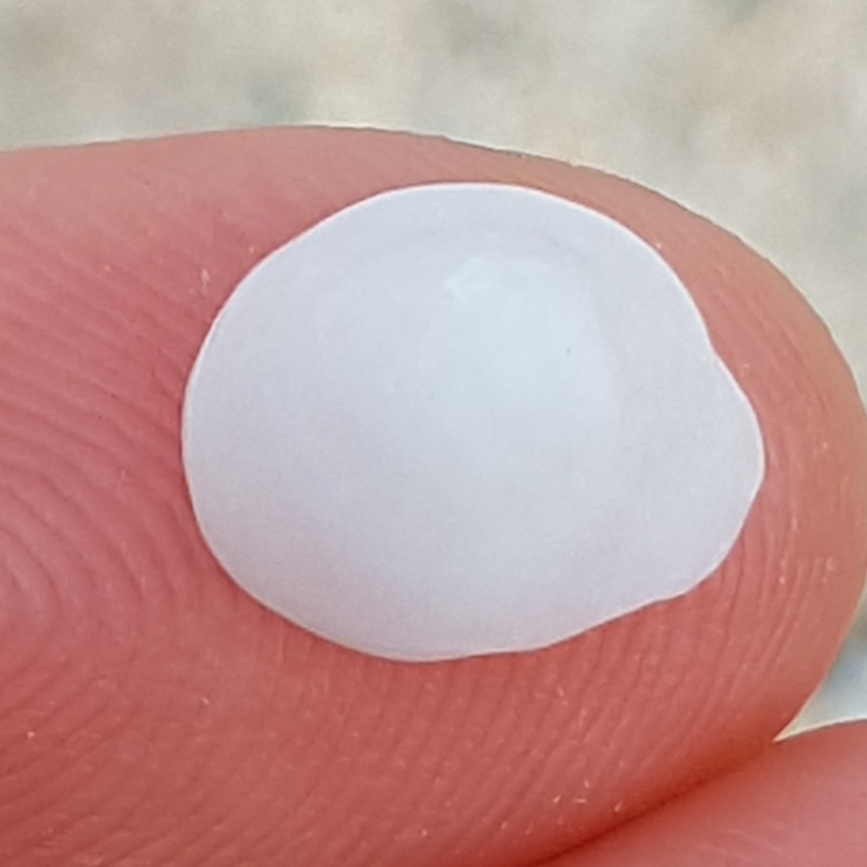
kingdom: Animalia
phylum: Mollusca
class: Gastropoda
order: Littorinimorpha
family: Calyptraeidae
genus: Calyptraea
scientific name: Calyptraea chinensis
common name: Chinaman's hat
